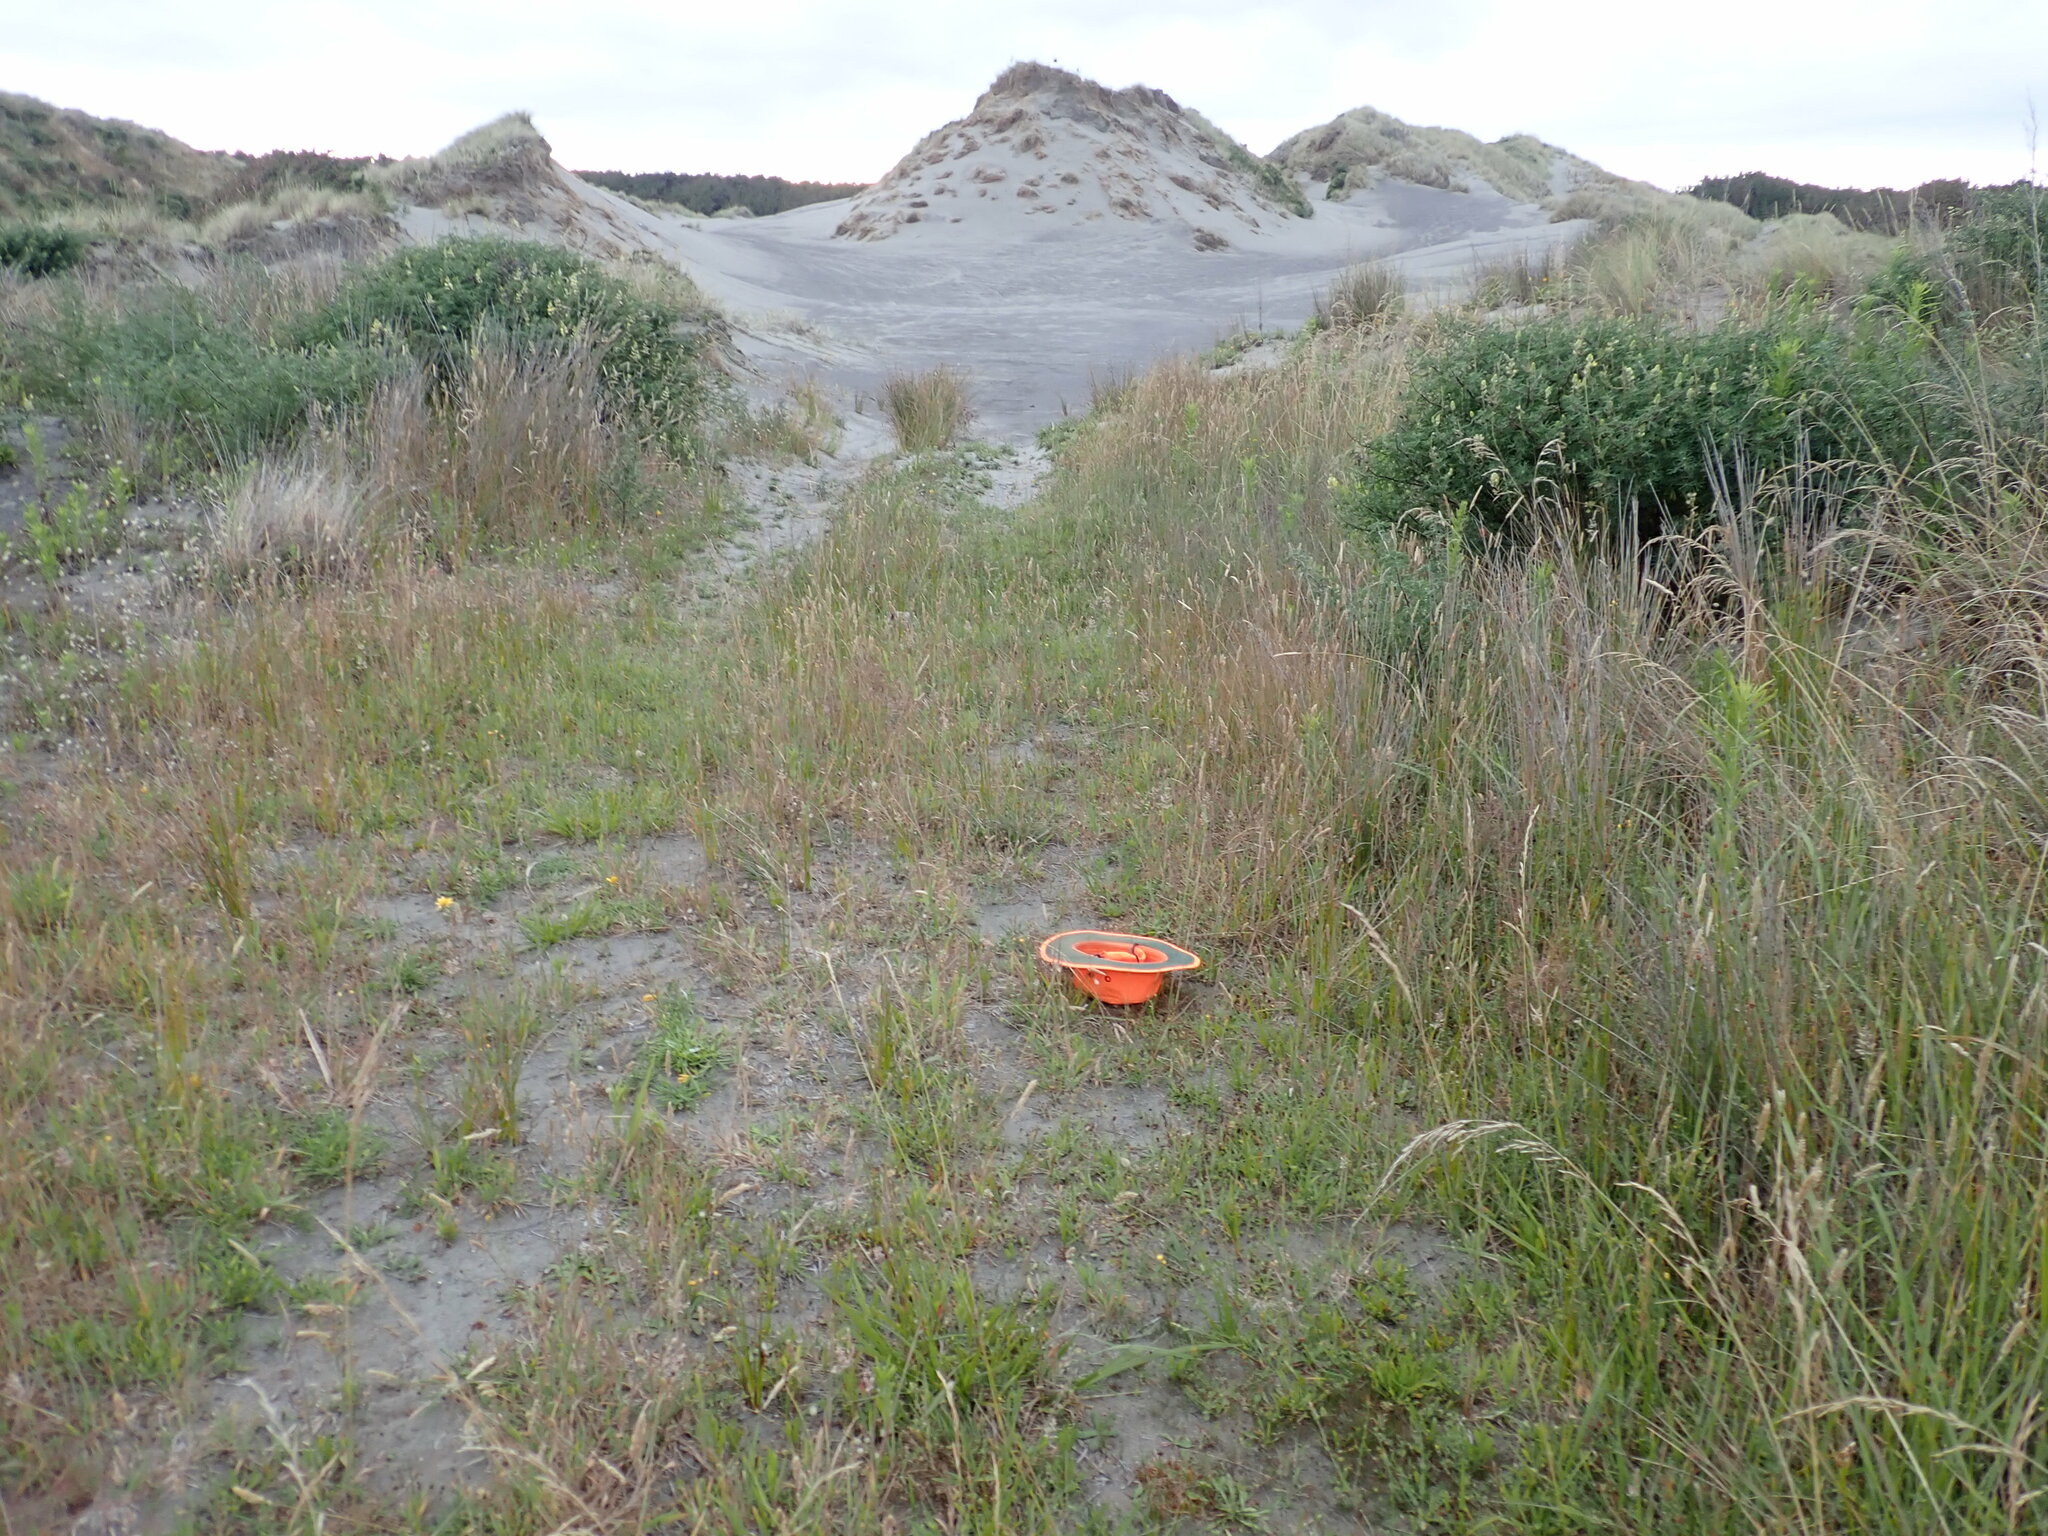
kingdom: Plantae
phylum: Tracheophyta
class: Liliopsida
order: Poales
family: Juncaceae
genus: Juncus
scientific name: Juncus caespiticius
